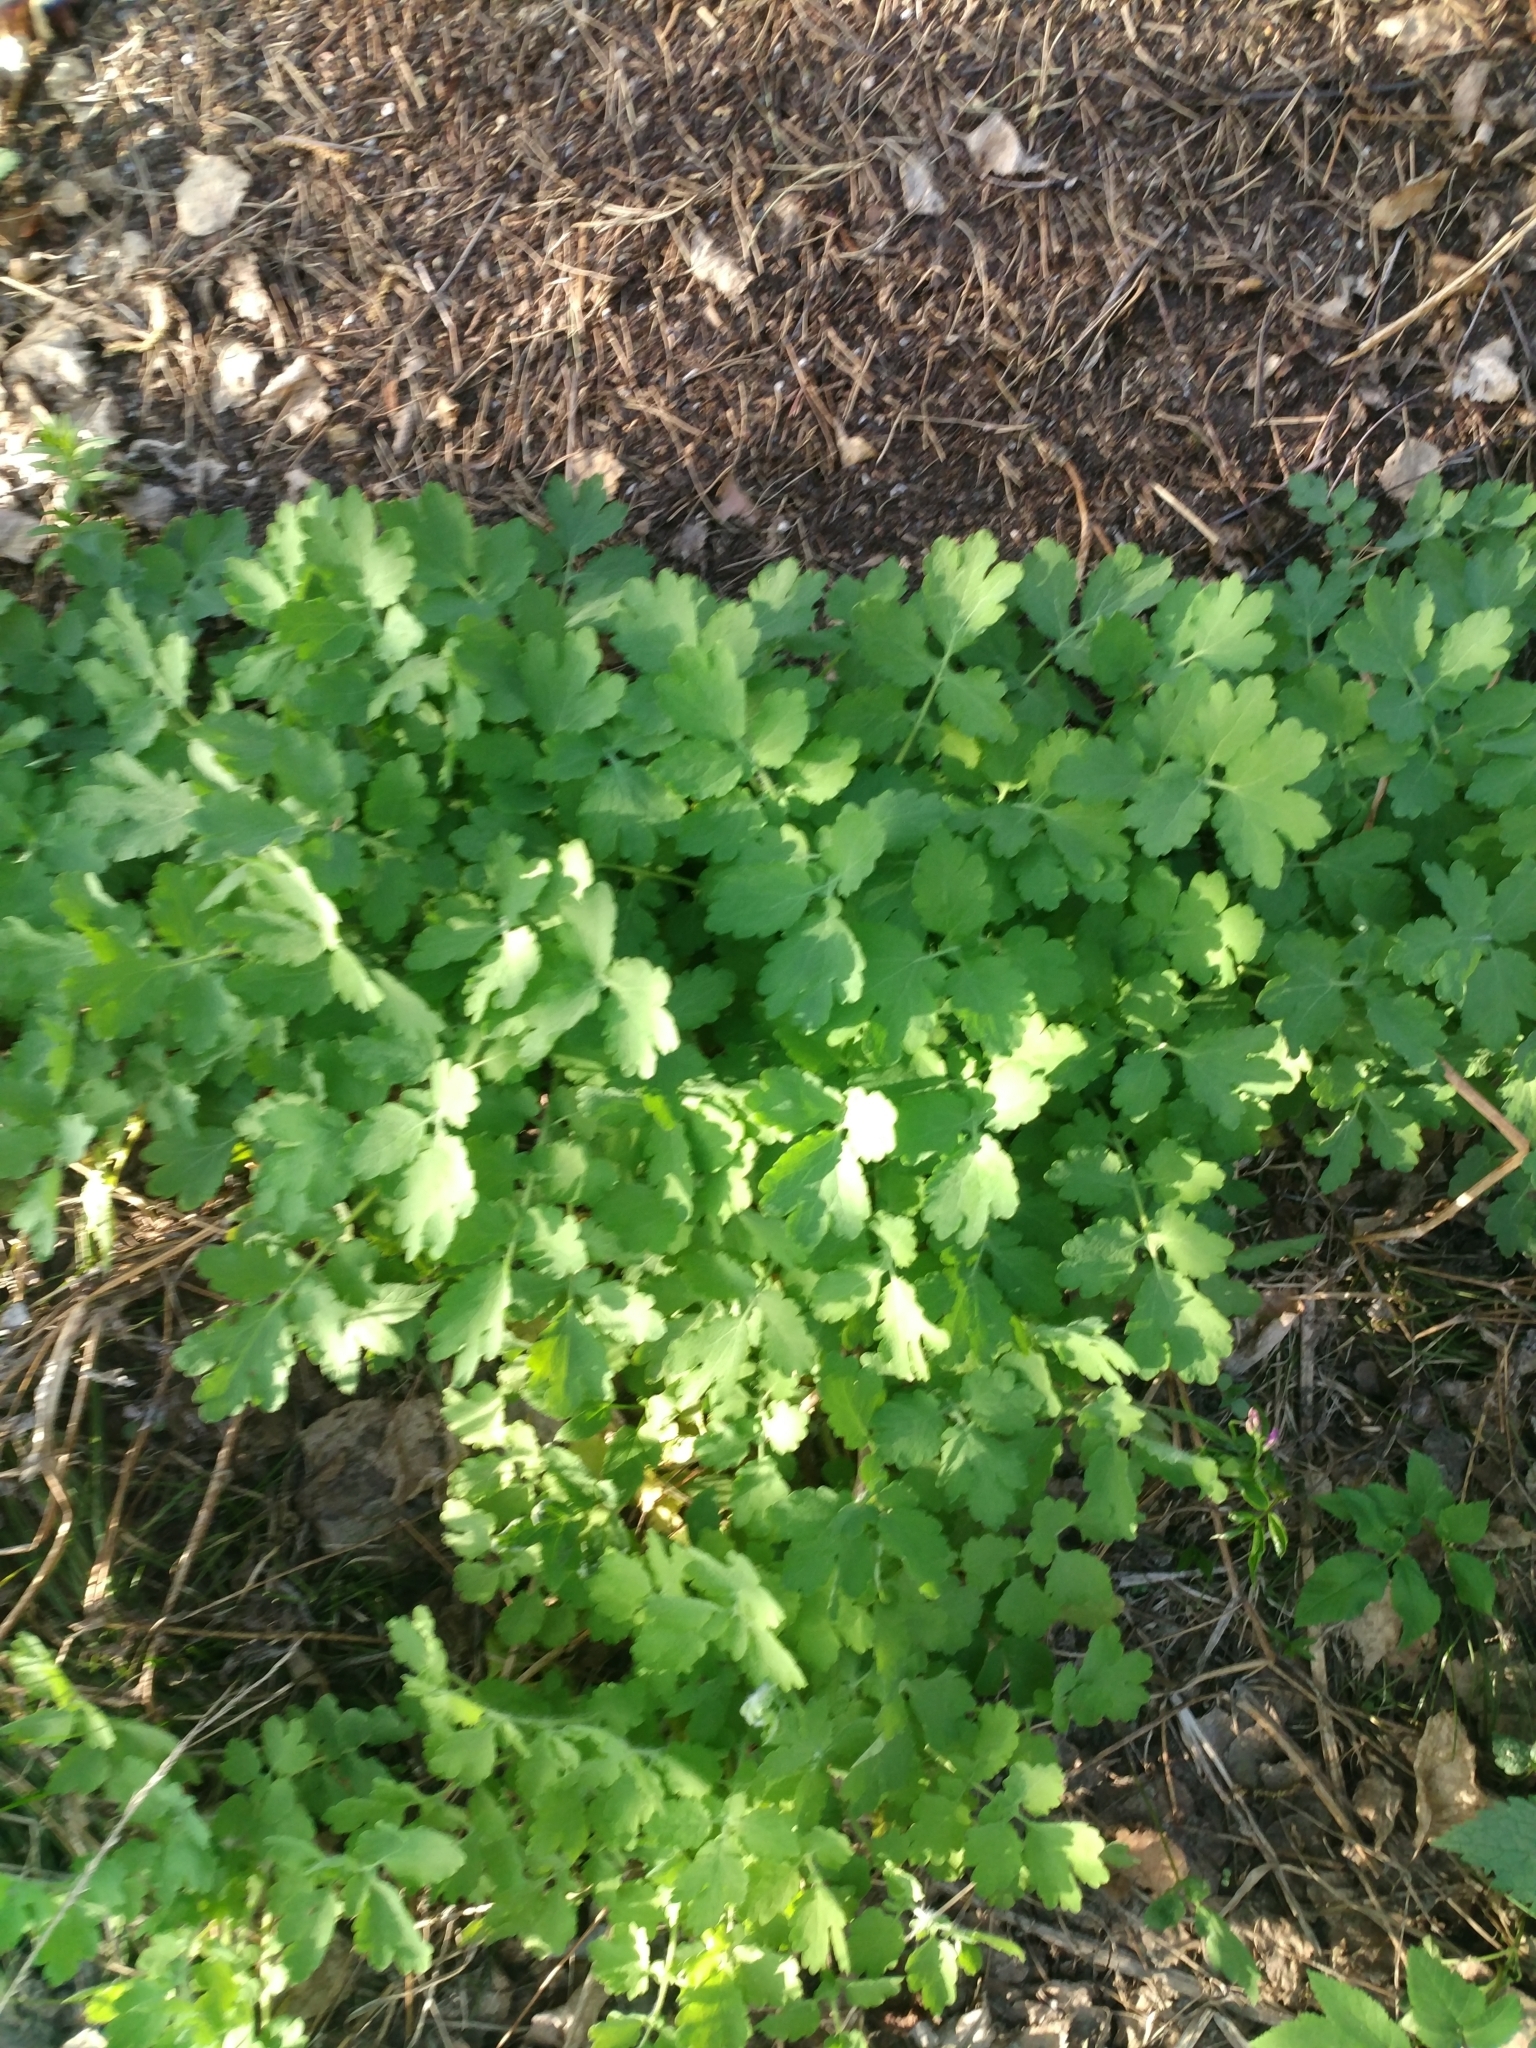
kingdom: Plantae
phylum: Tracheophyta
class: Magnoliopsida
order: Ranunculales
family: Papaveraceae
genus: Chelidonium
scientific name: Chelidonium majus
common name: Greater celandine
